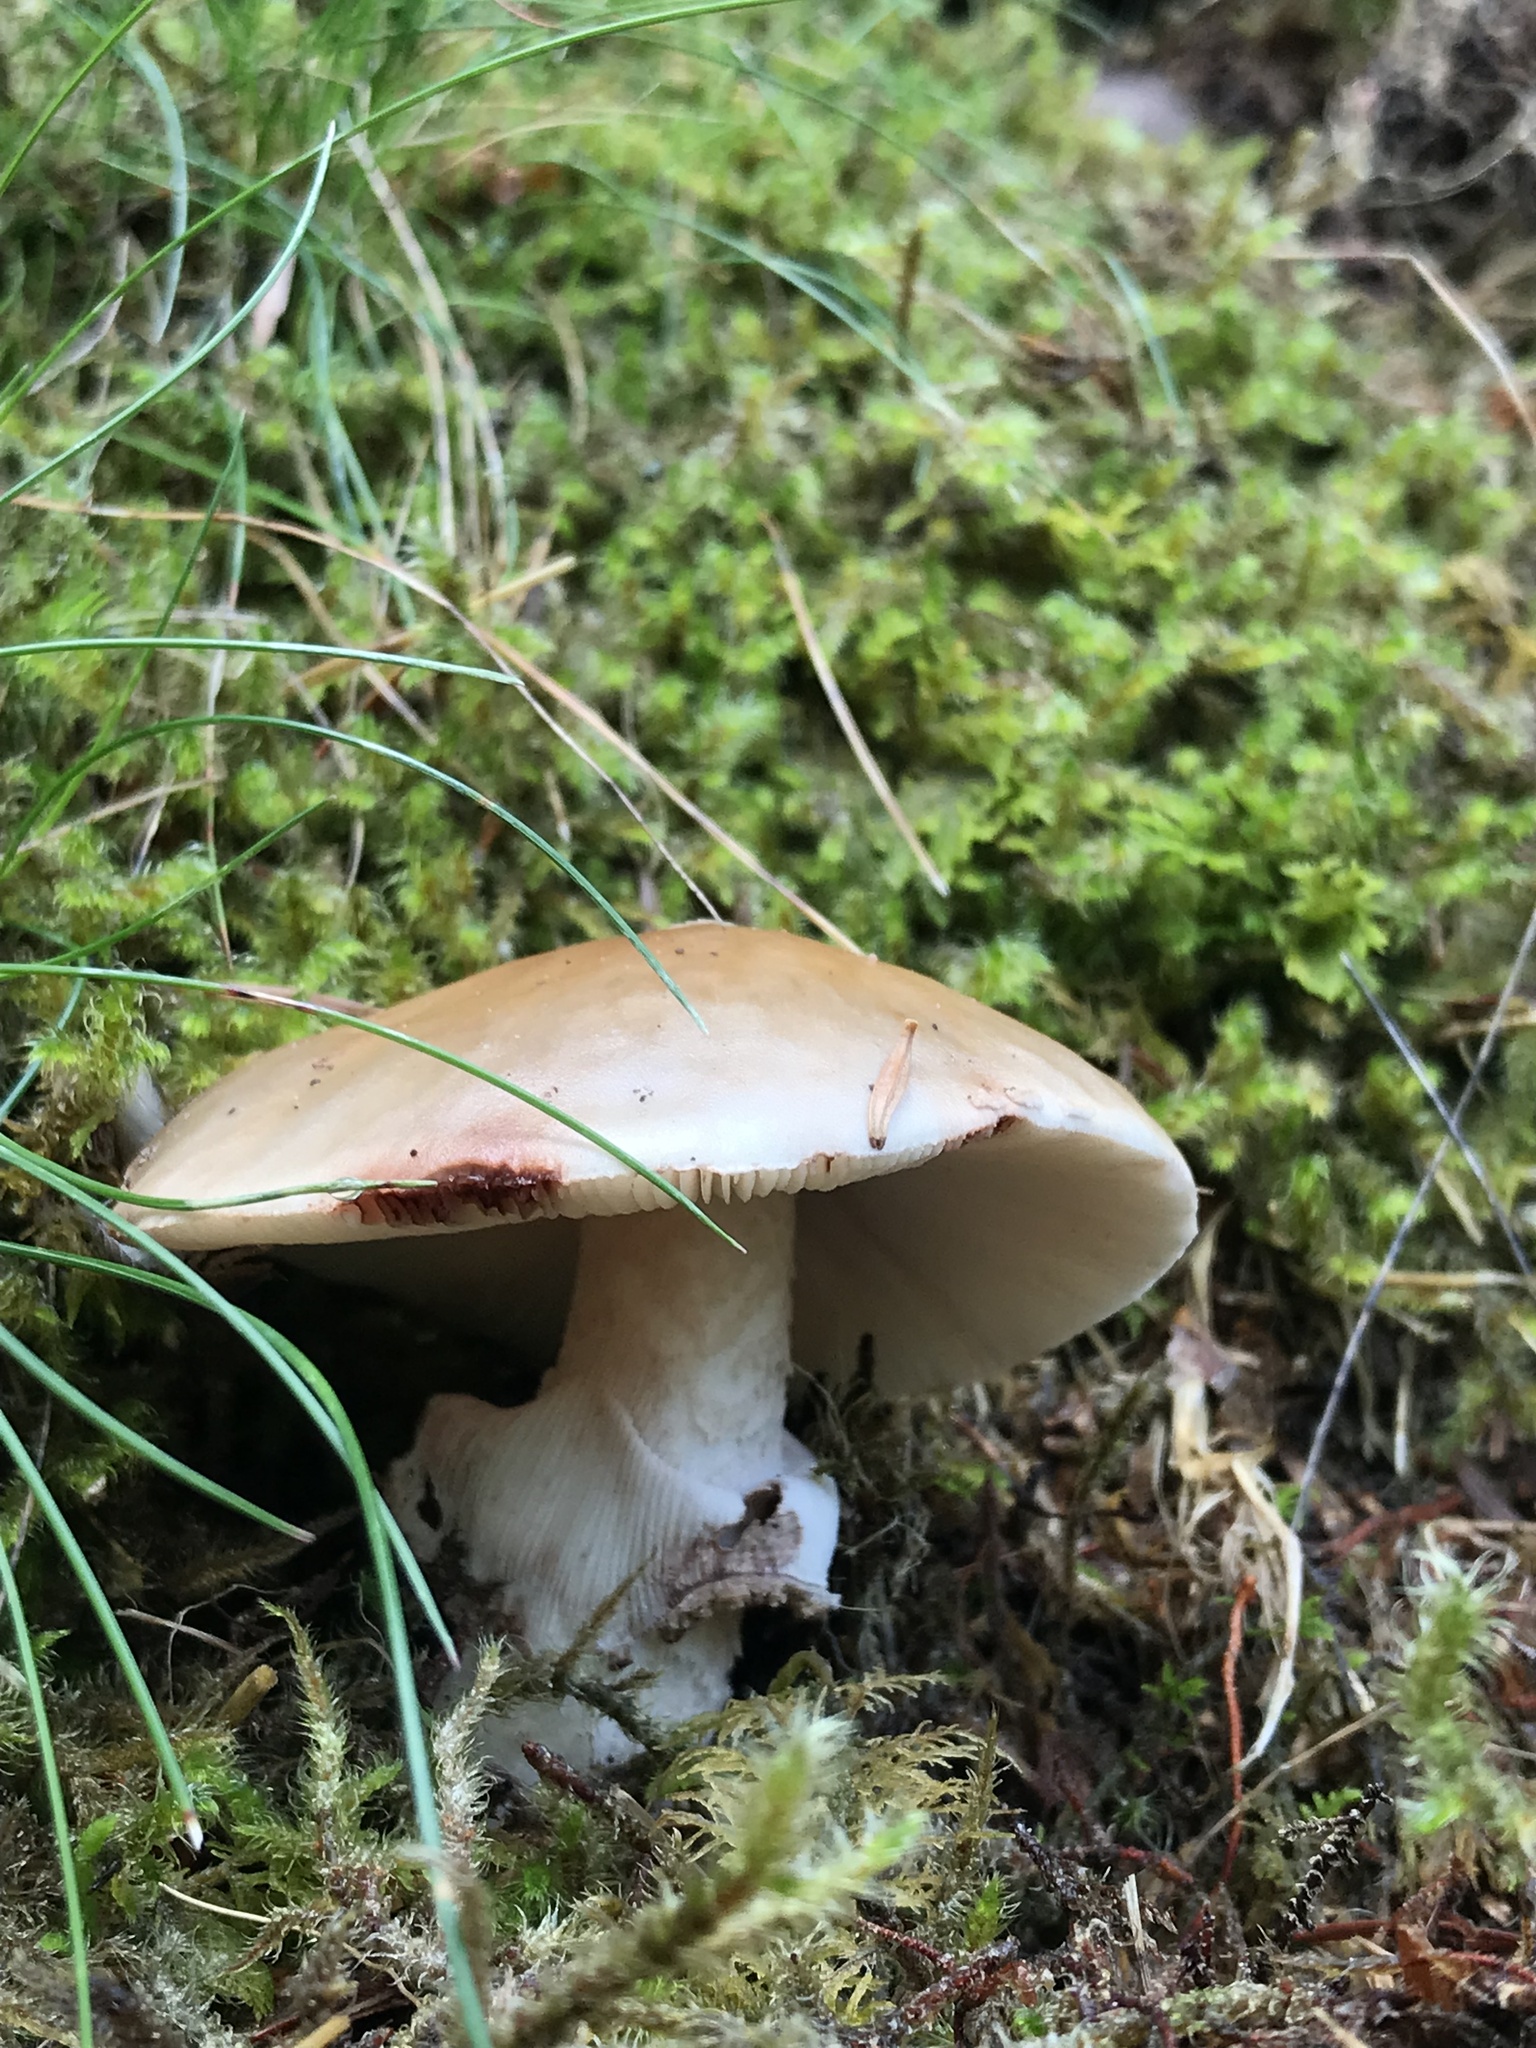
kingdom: Fungi
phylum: Basidiomycota
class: Agaricomycetes
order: Agaricales
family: Amanitaceae
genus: Amanita
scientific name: Amanita rubescens
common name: Blusher
